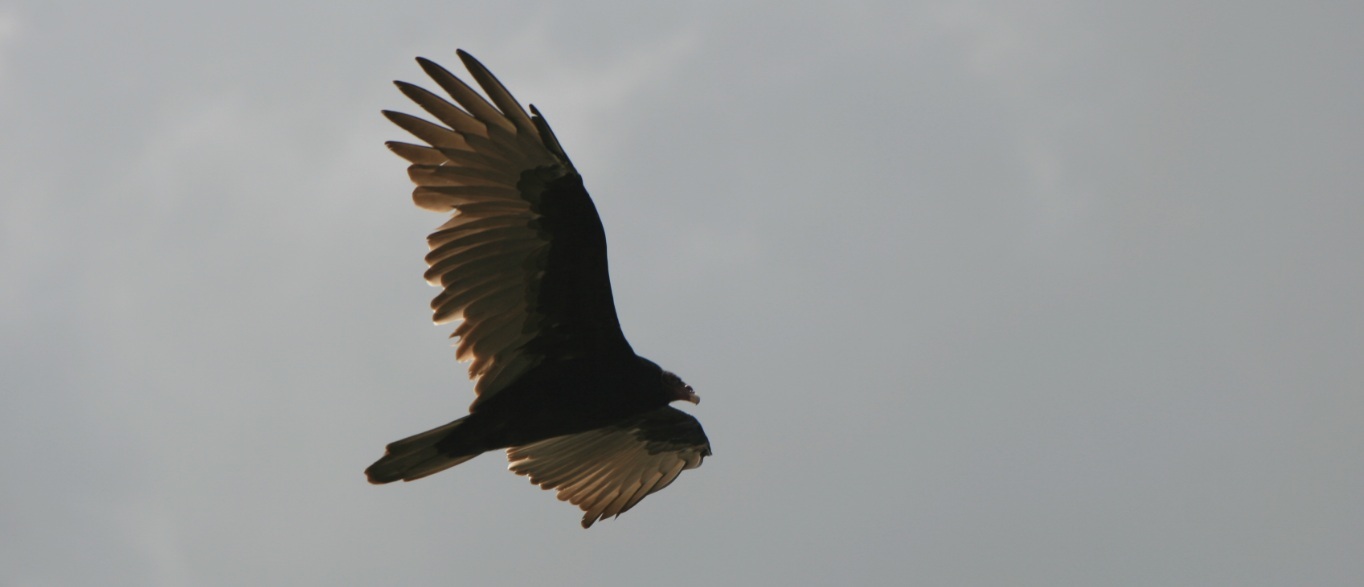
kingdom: Animalia
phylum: Chordata
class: Aves
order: Accipitriformes
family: Cathartidae
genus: Cathartes
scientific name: Cathartes aura
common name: Turkey vulture
